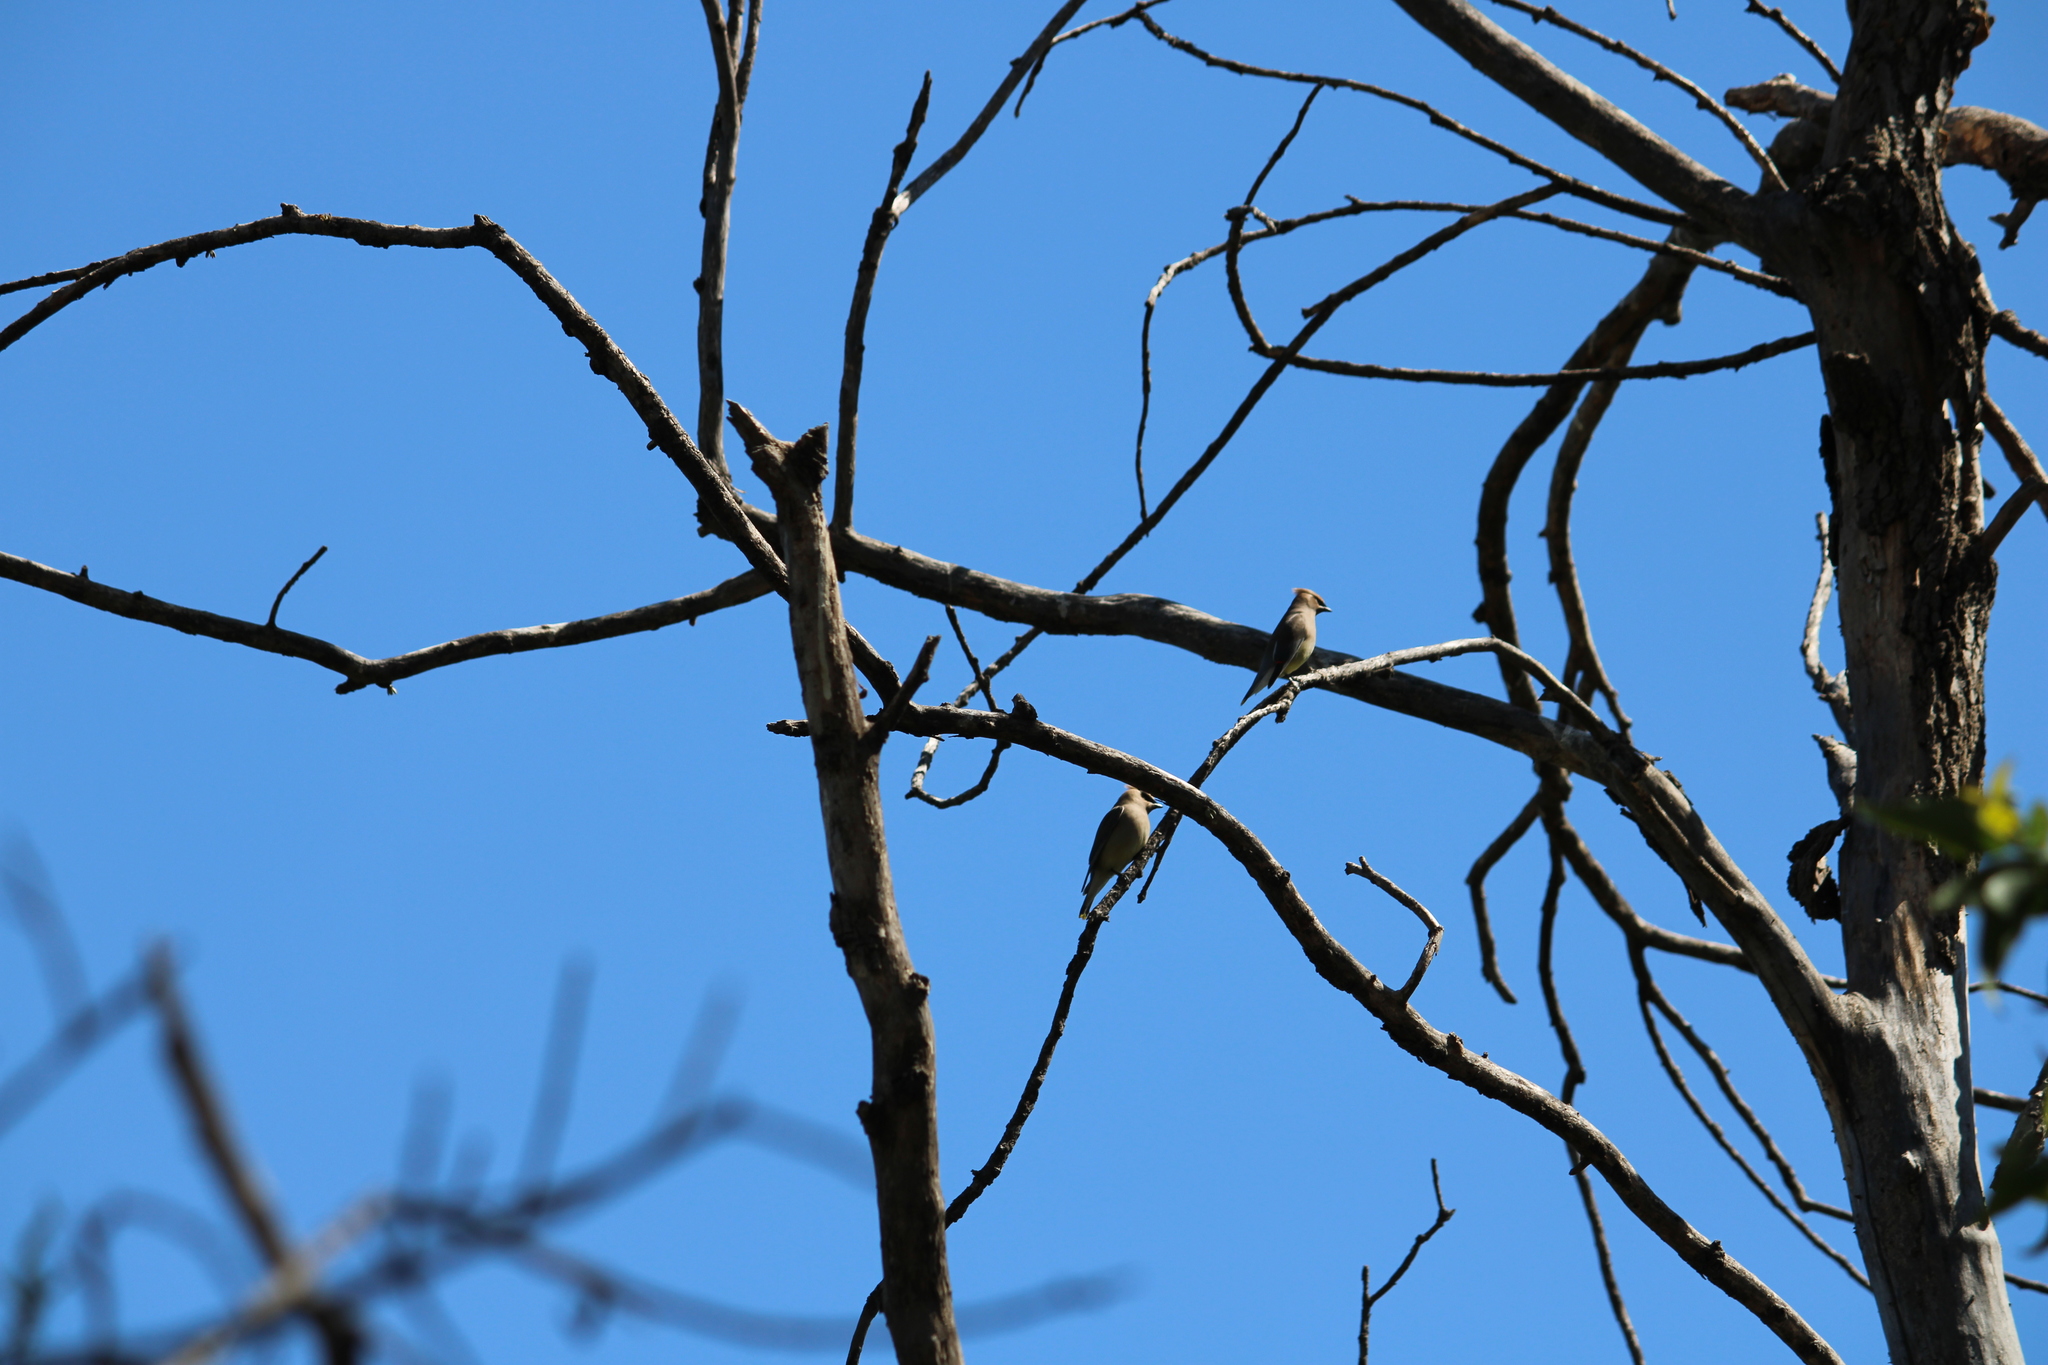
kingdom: Animalia
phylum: Chordata
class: Aves
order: Passeriformes
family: Bombycillidae
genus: Bombycilla
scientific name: Bombycilla cedrorum
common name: Cedar waxwing
